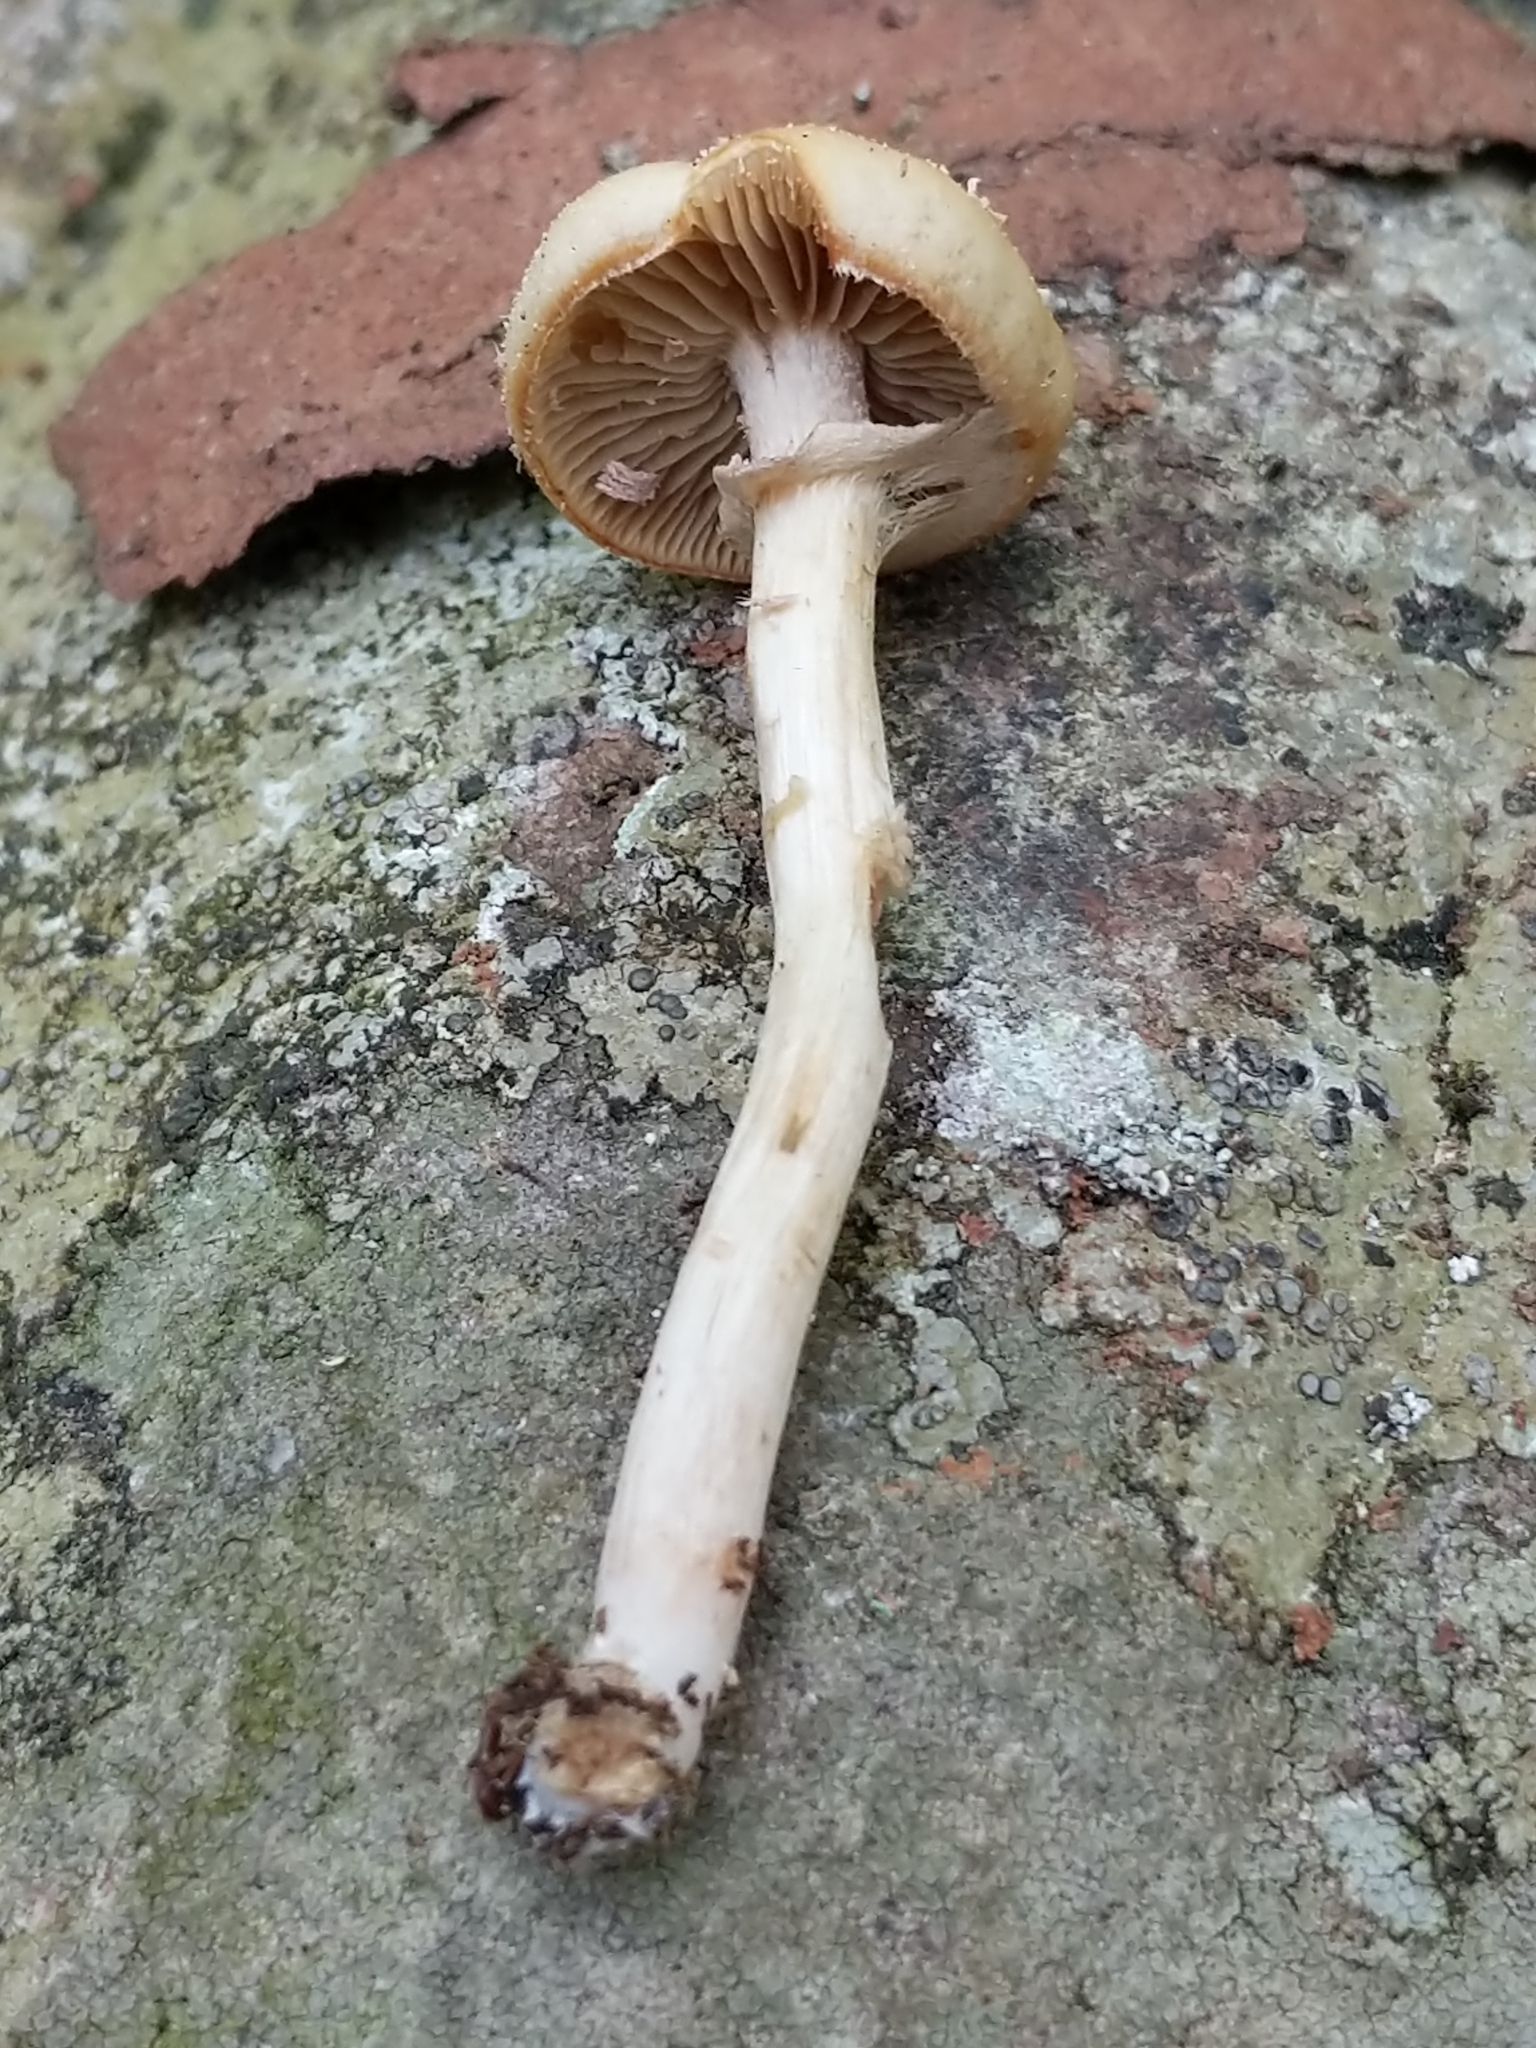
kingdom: Fungi
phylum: Basidiomycota
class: Agaricomycetes
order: Agaricales
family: Strophariaceae
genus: Kuehneromyces
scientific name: Kuehneromyces marginellus
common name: Sheathed woodtuft
